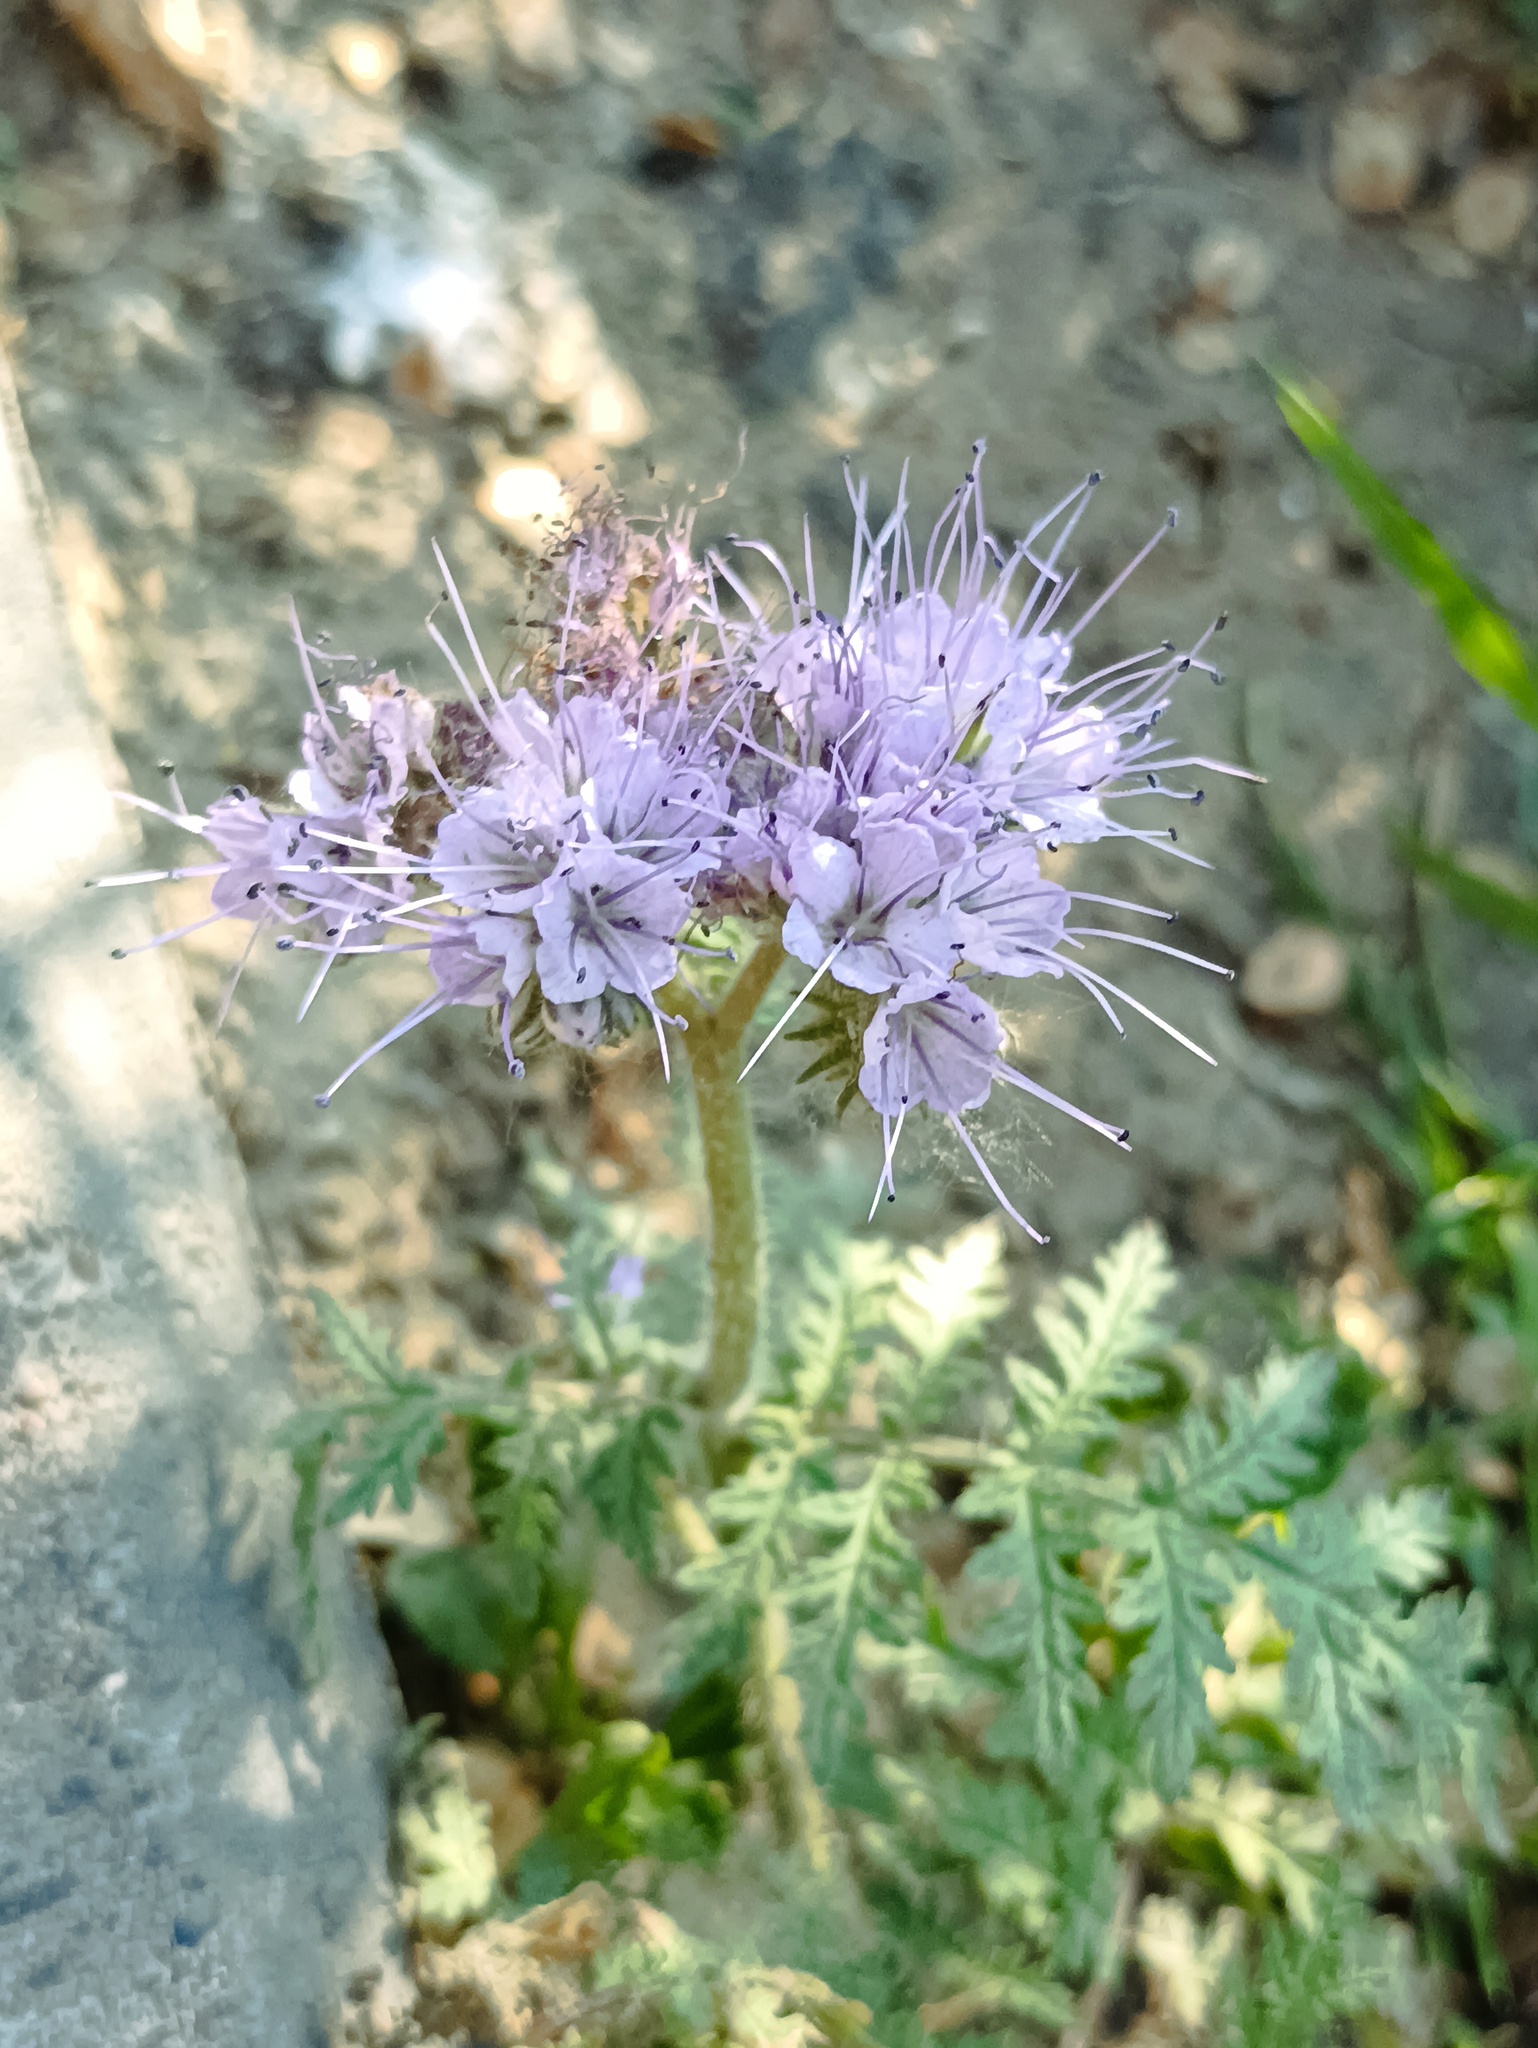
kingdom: Plantae
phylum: Tracheophyta
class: Magnoliopsida
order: Boraginales
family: Hydrophyllaceae
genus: Phacelia
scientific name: Phacelia tanacetifolia
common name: Phacelia
